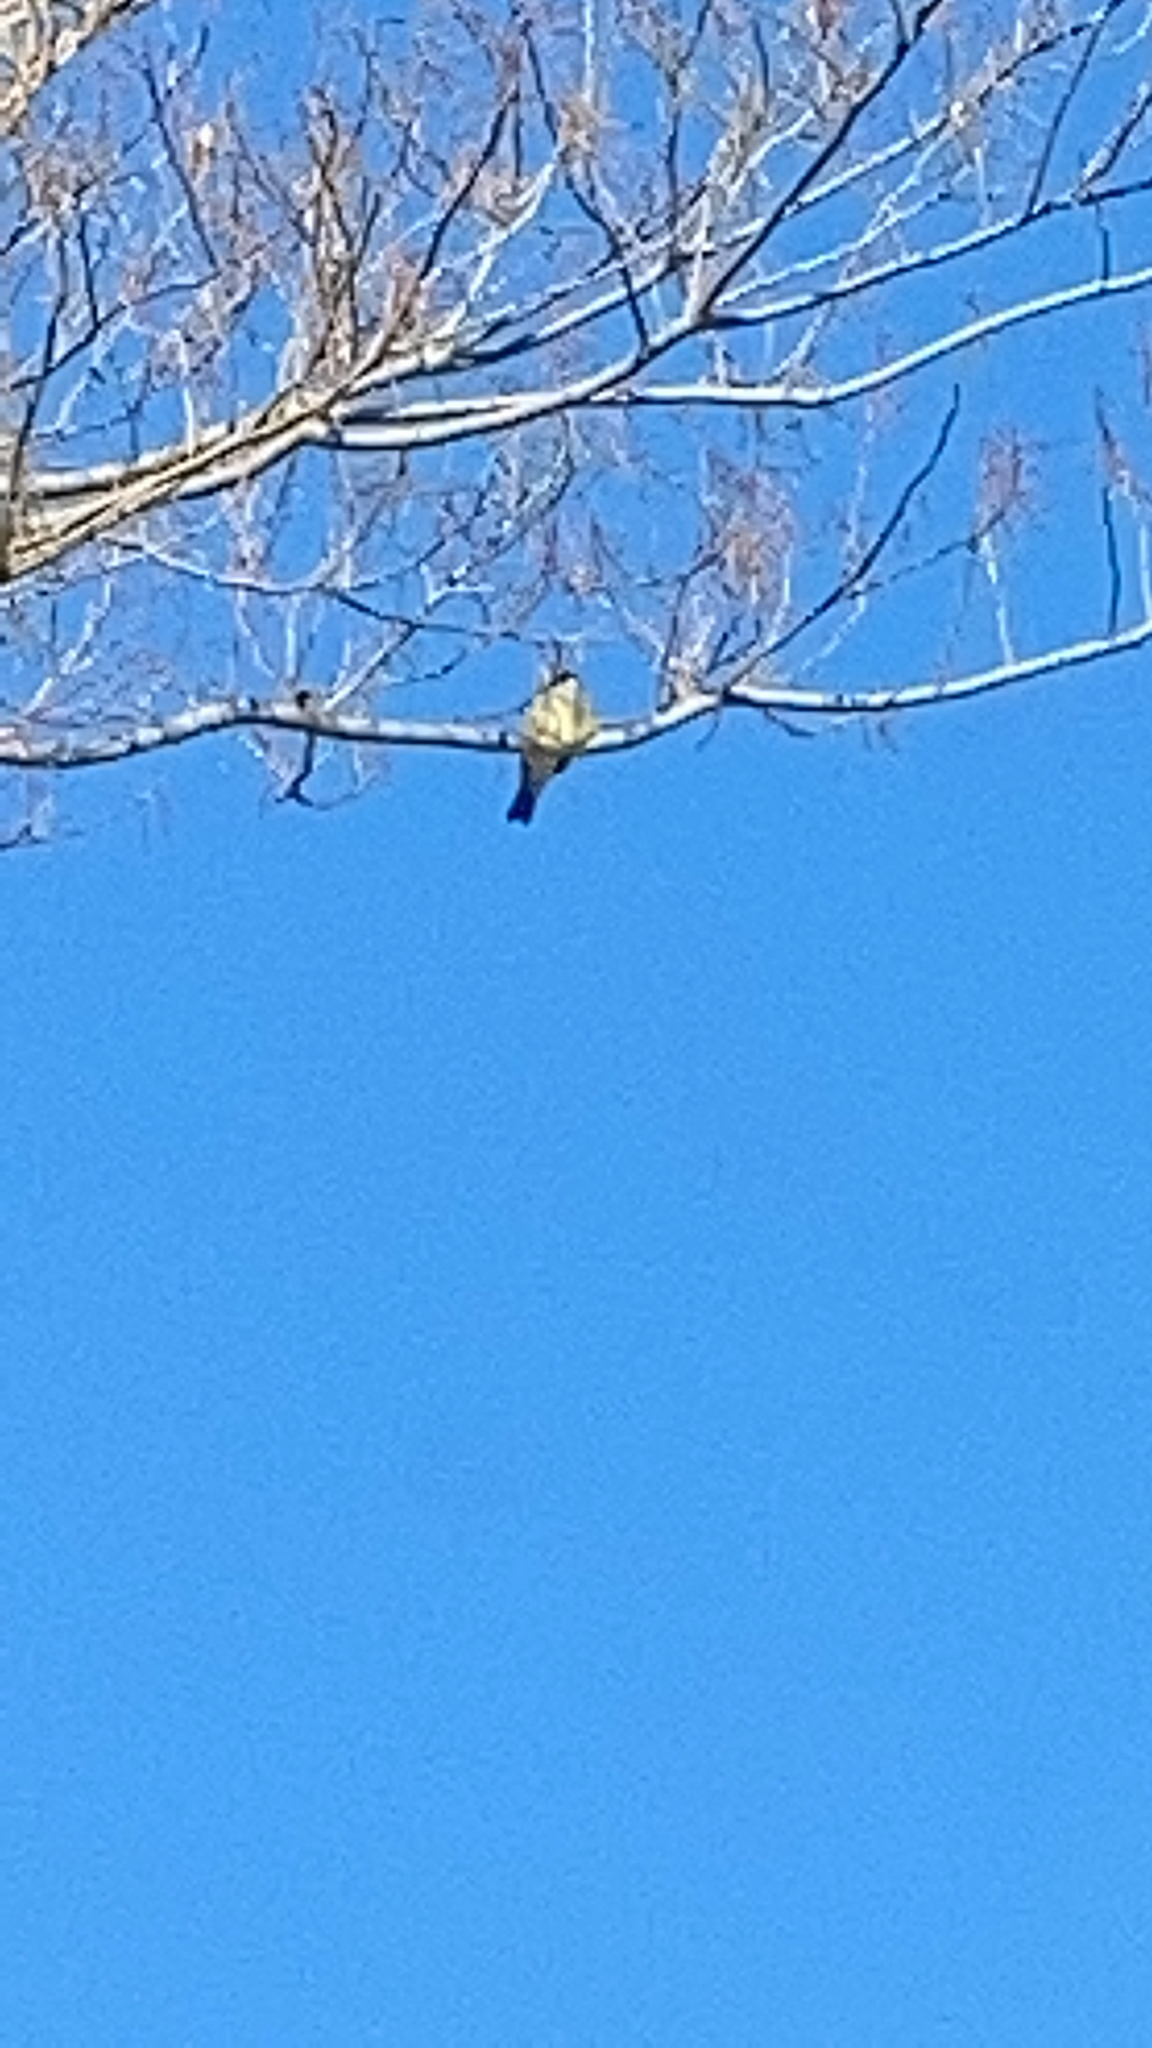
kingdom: Animalia
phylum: Chordata
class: Aves
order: Passeriformes
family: Tyrannidae
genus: Tyrannus
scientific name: Tyrannus vociferans
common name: Cassin's kingbird
